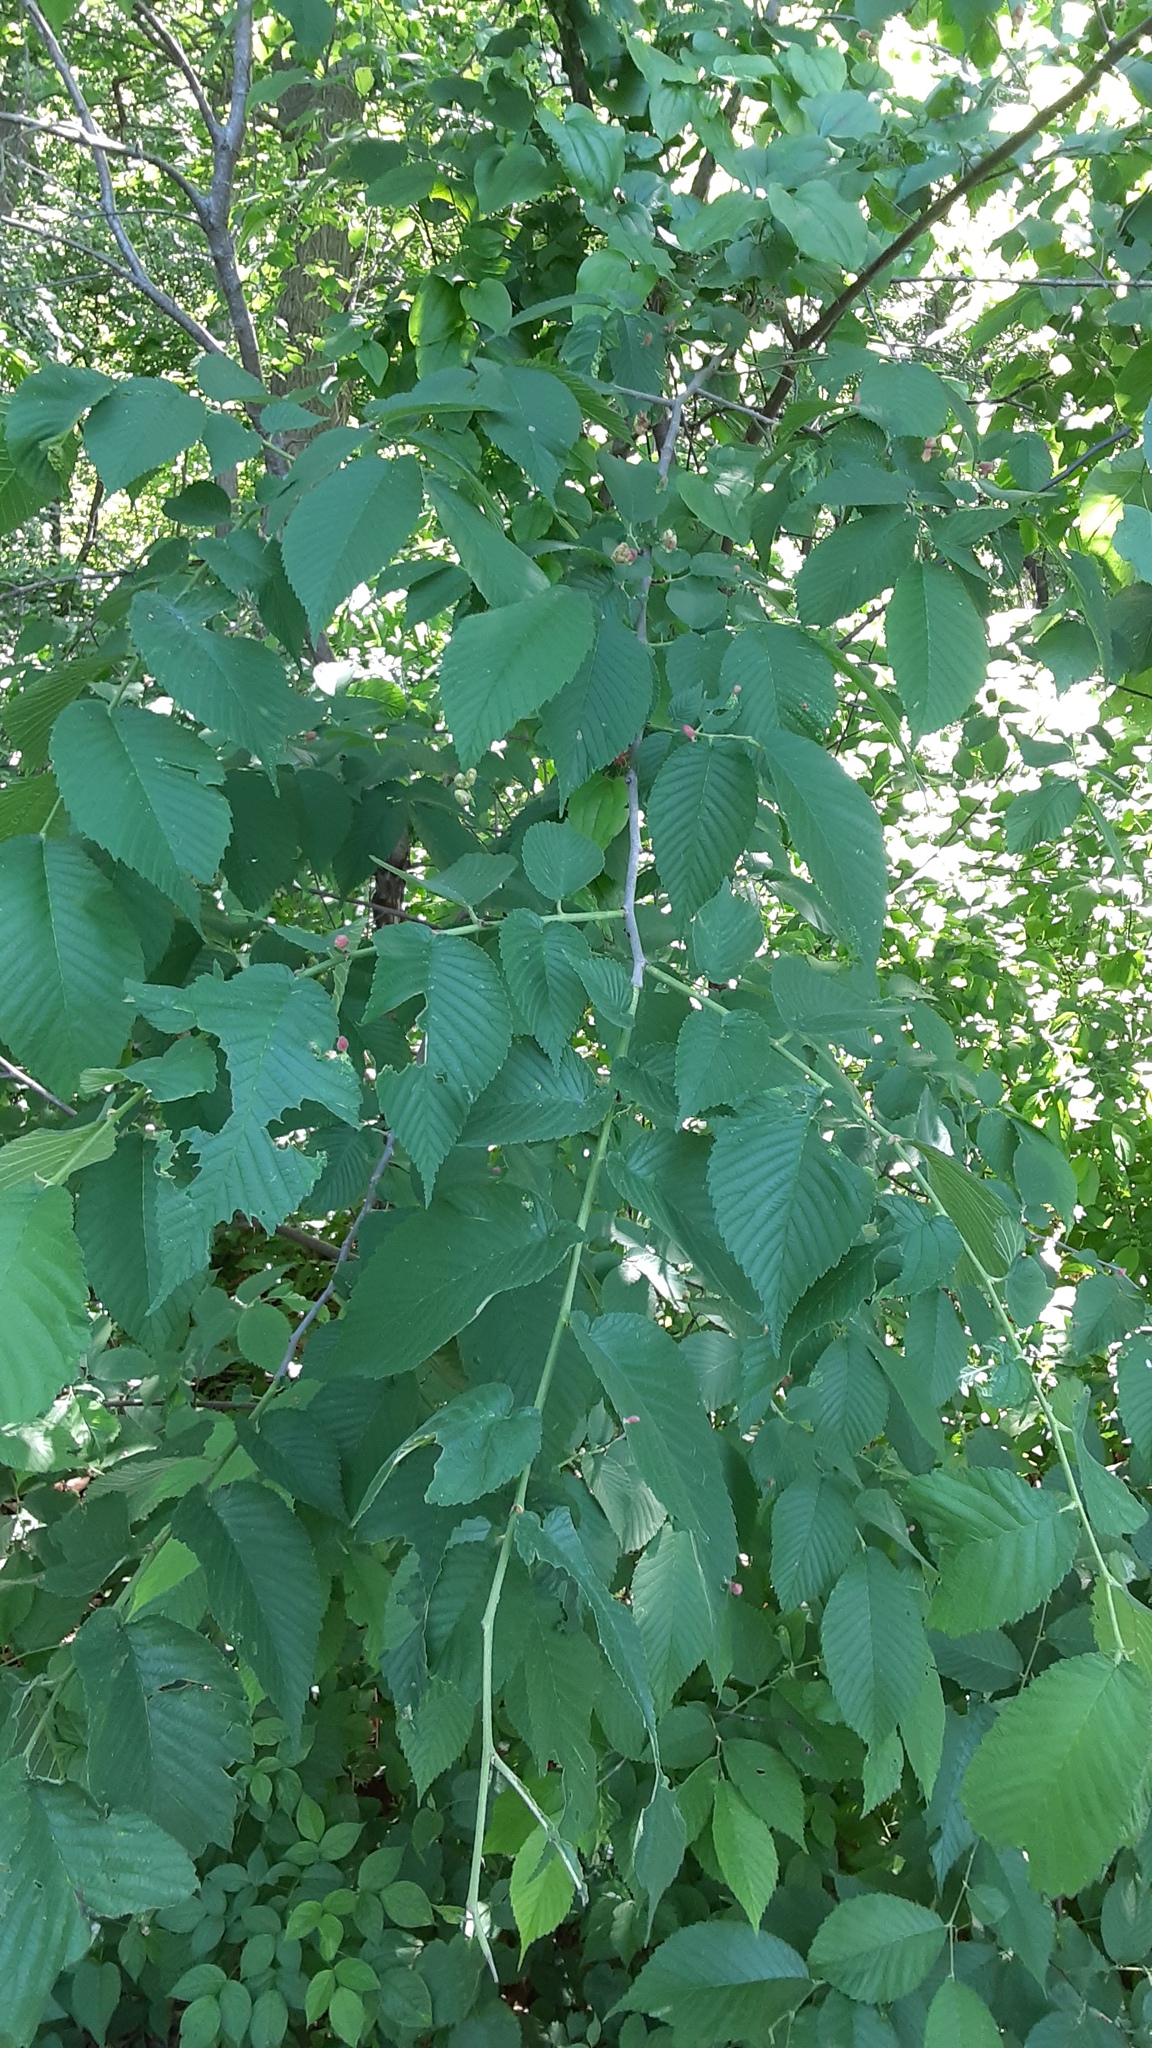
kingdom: Animalia
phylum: Arthropoda
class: Insecta
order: Hemiptera
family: Aphididae
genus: Tetraneura
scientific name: Tetraneura nigriabdominalis
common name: Aphid
